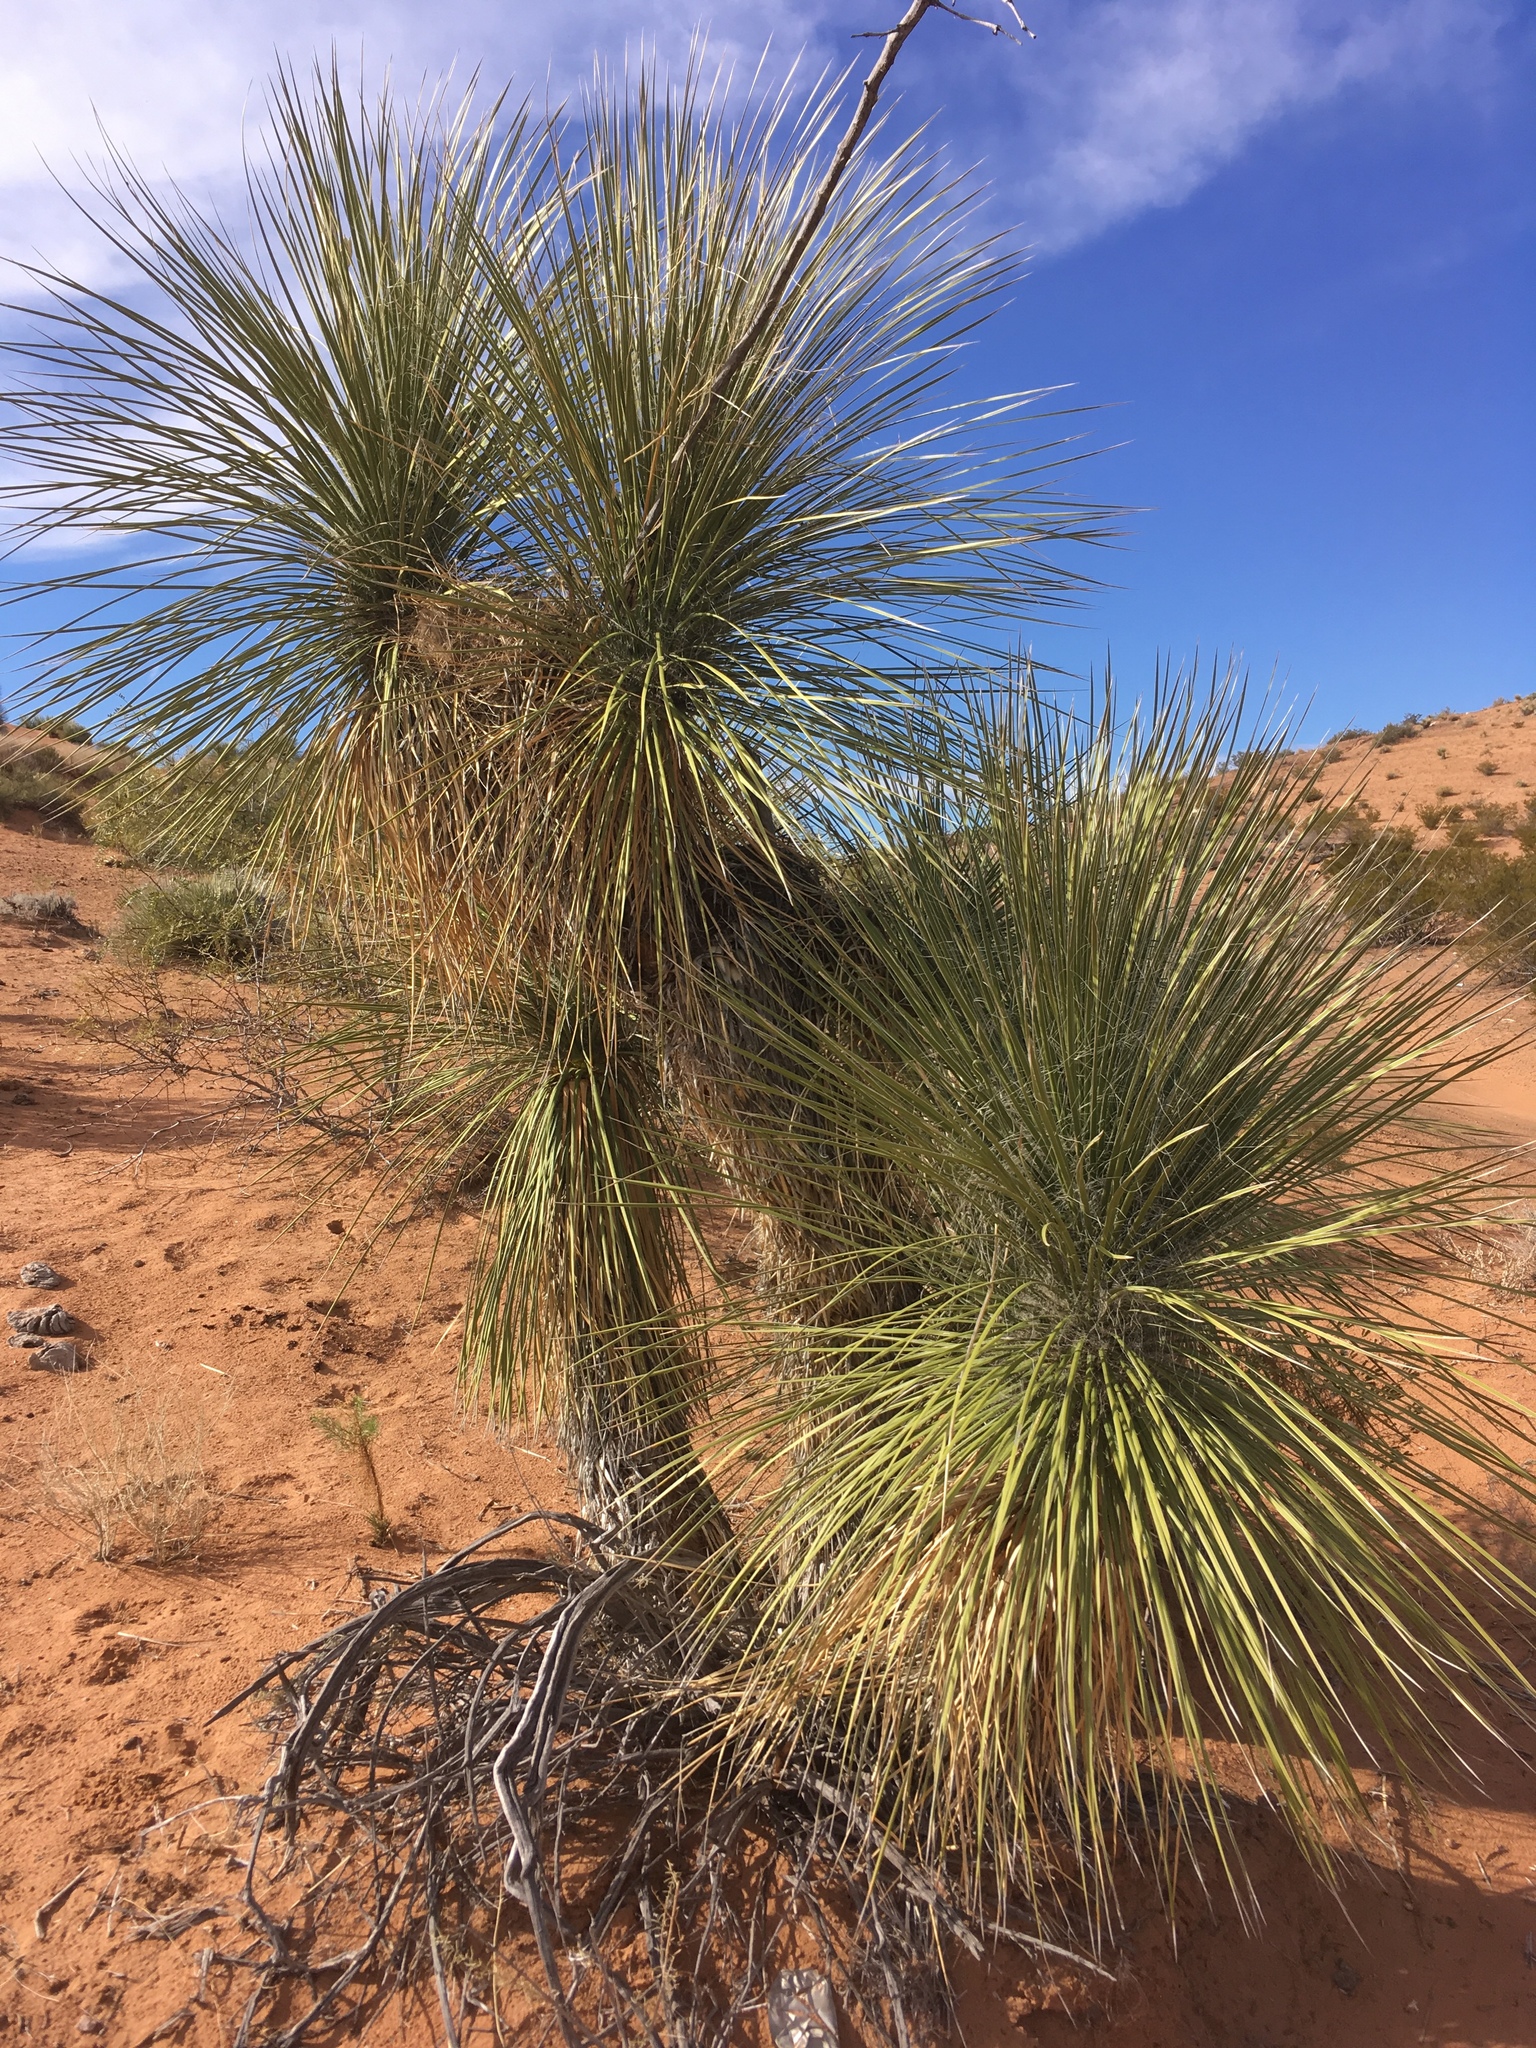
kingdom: Plantae
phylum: Tracheophyta
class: Liliopsida
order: Asparagales
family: Asparagaceae
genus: Yucca
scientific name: Yucca elata
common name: Palmella
